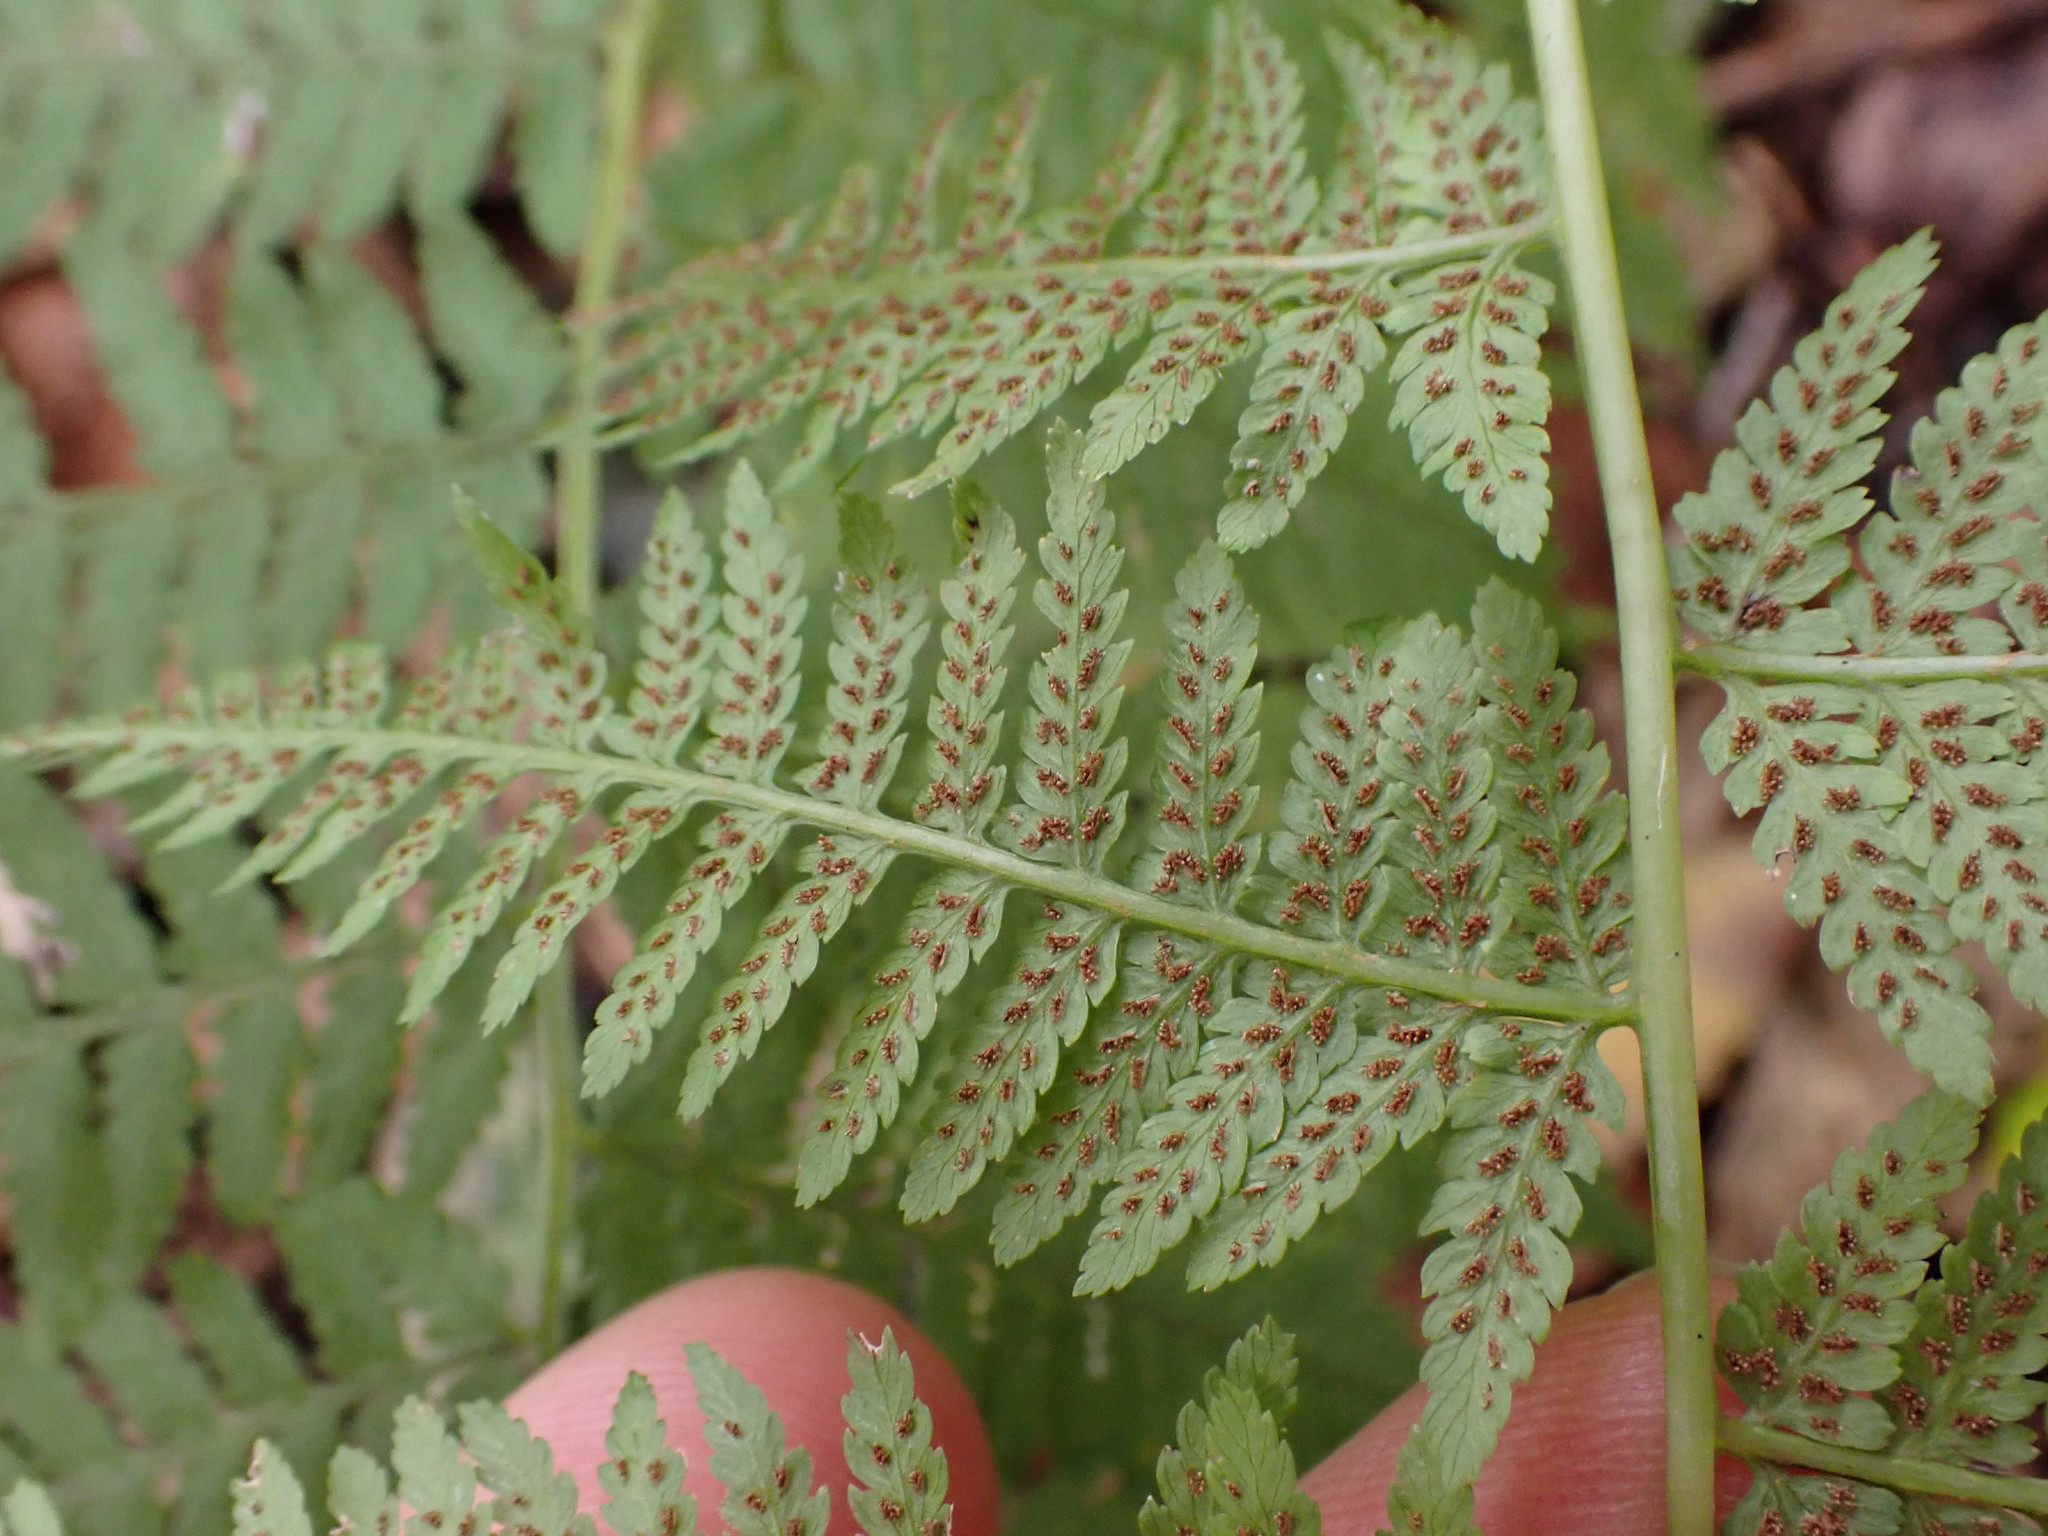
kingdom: Plantae
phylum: Tracheophyta
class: Polypodiopsida
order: Polypodiales
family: Athyriaceae
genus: Athyrium
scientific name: Athyrium angustum
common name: Northern lady fern
